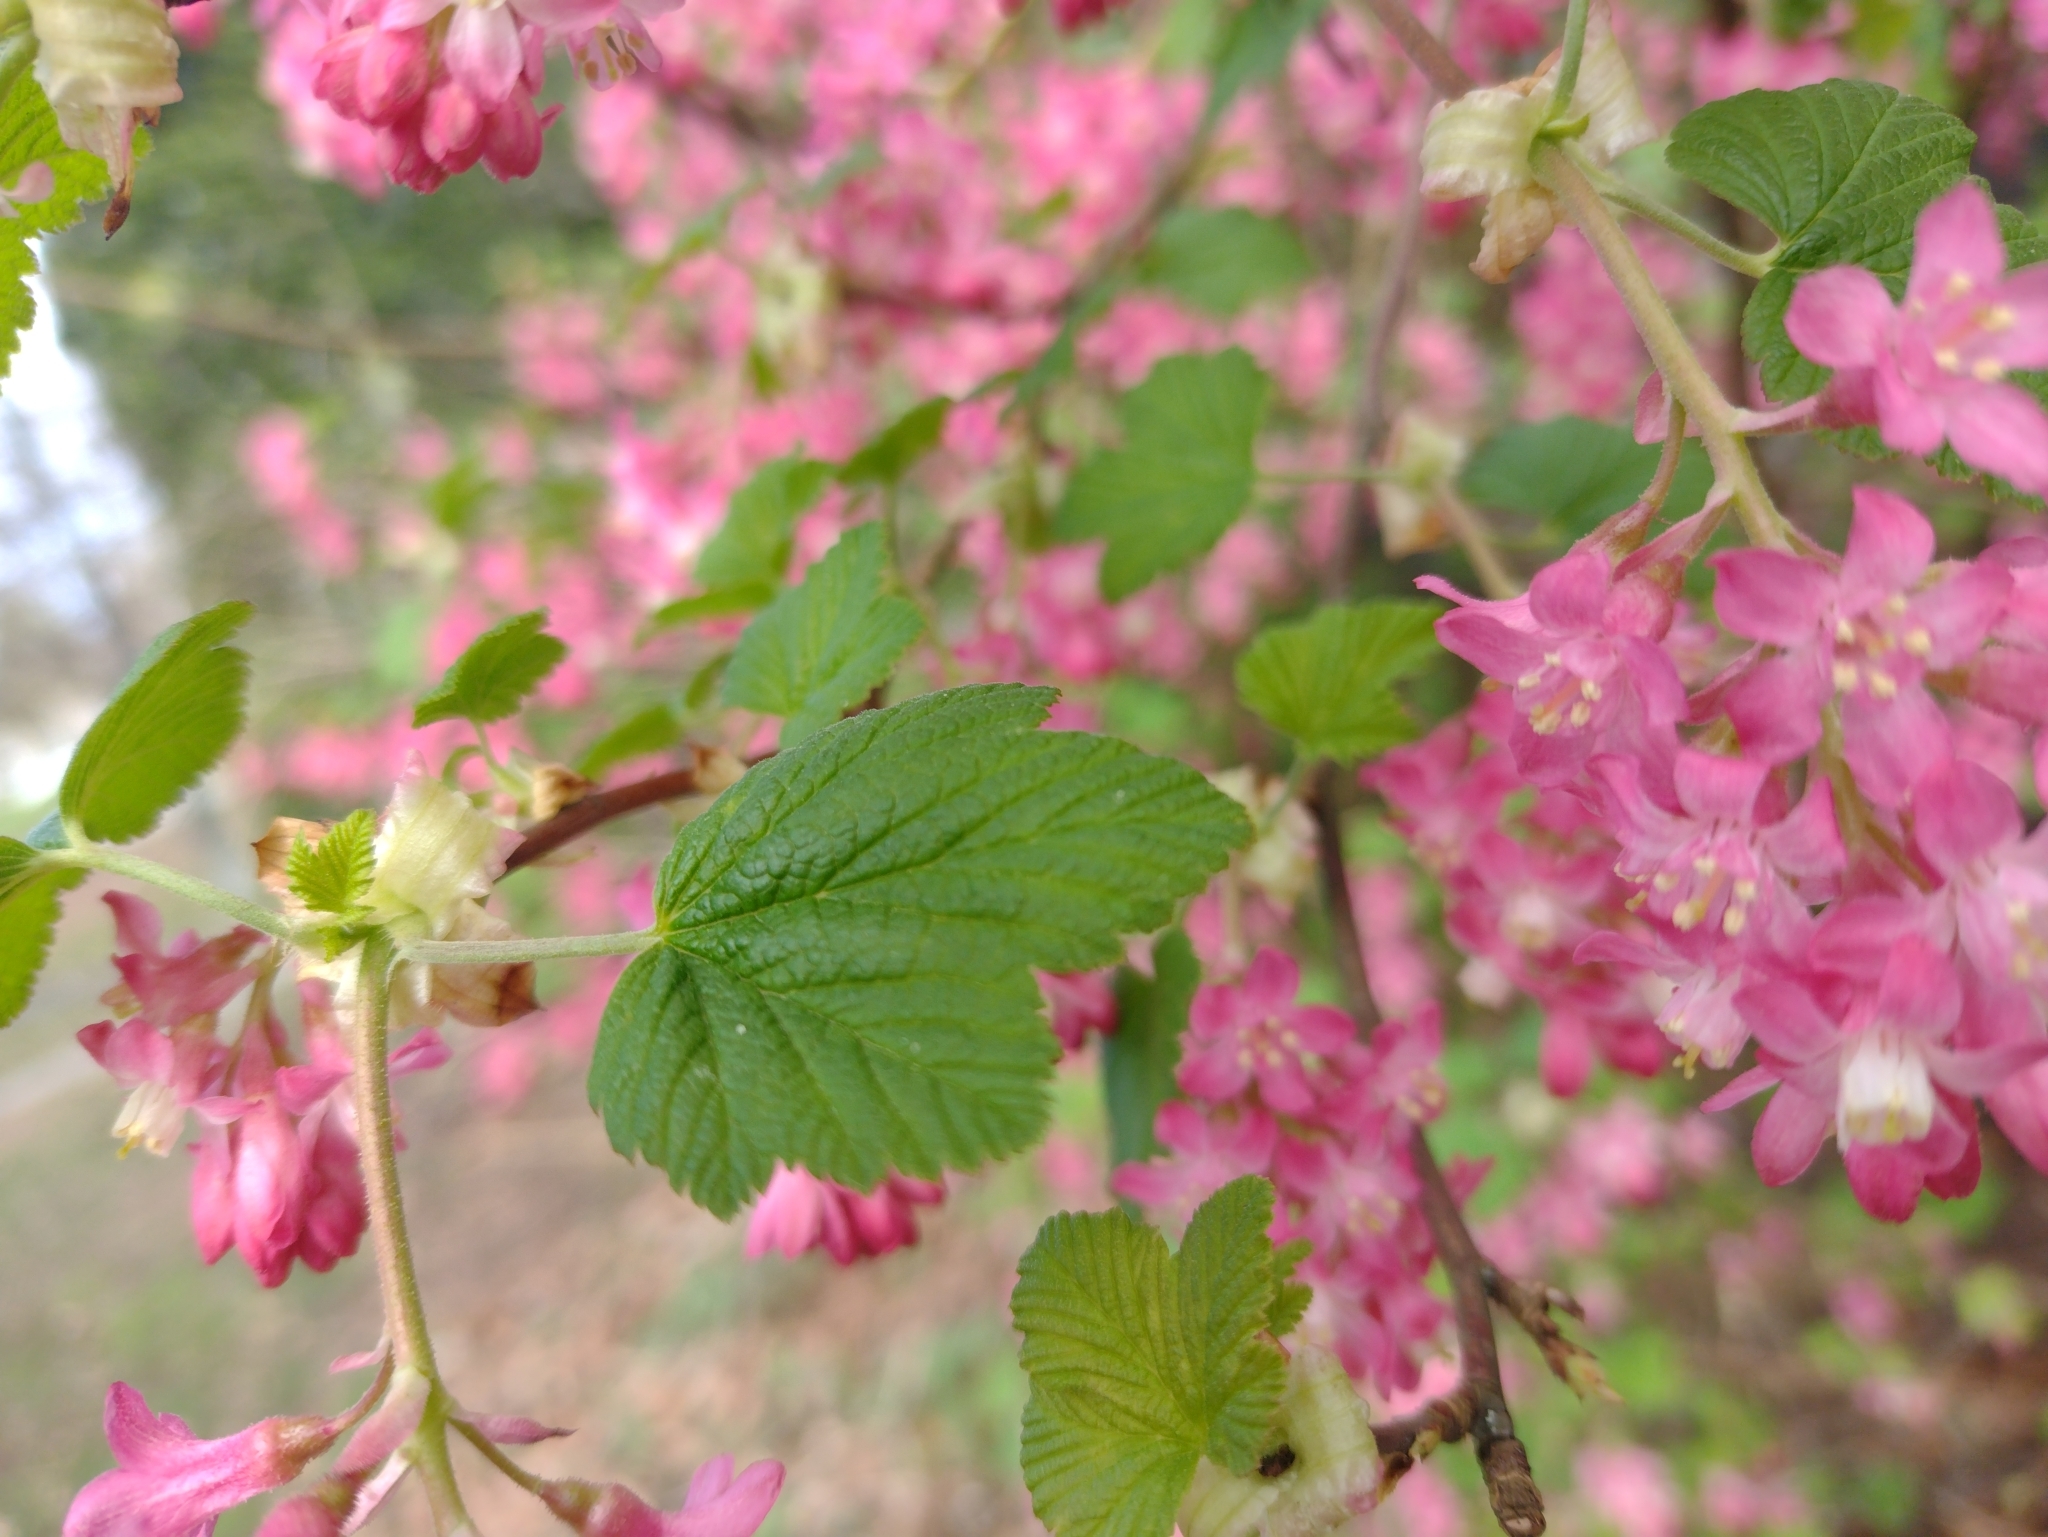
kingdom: Plantae
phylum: Tracheophyta
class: Magnoliopsida
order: Saxifragales
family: Grossulariaceae
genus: Ribes
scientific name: Ribes sanguineum
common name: Flowering currant
